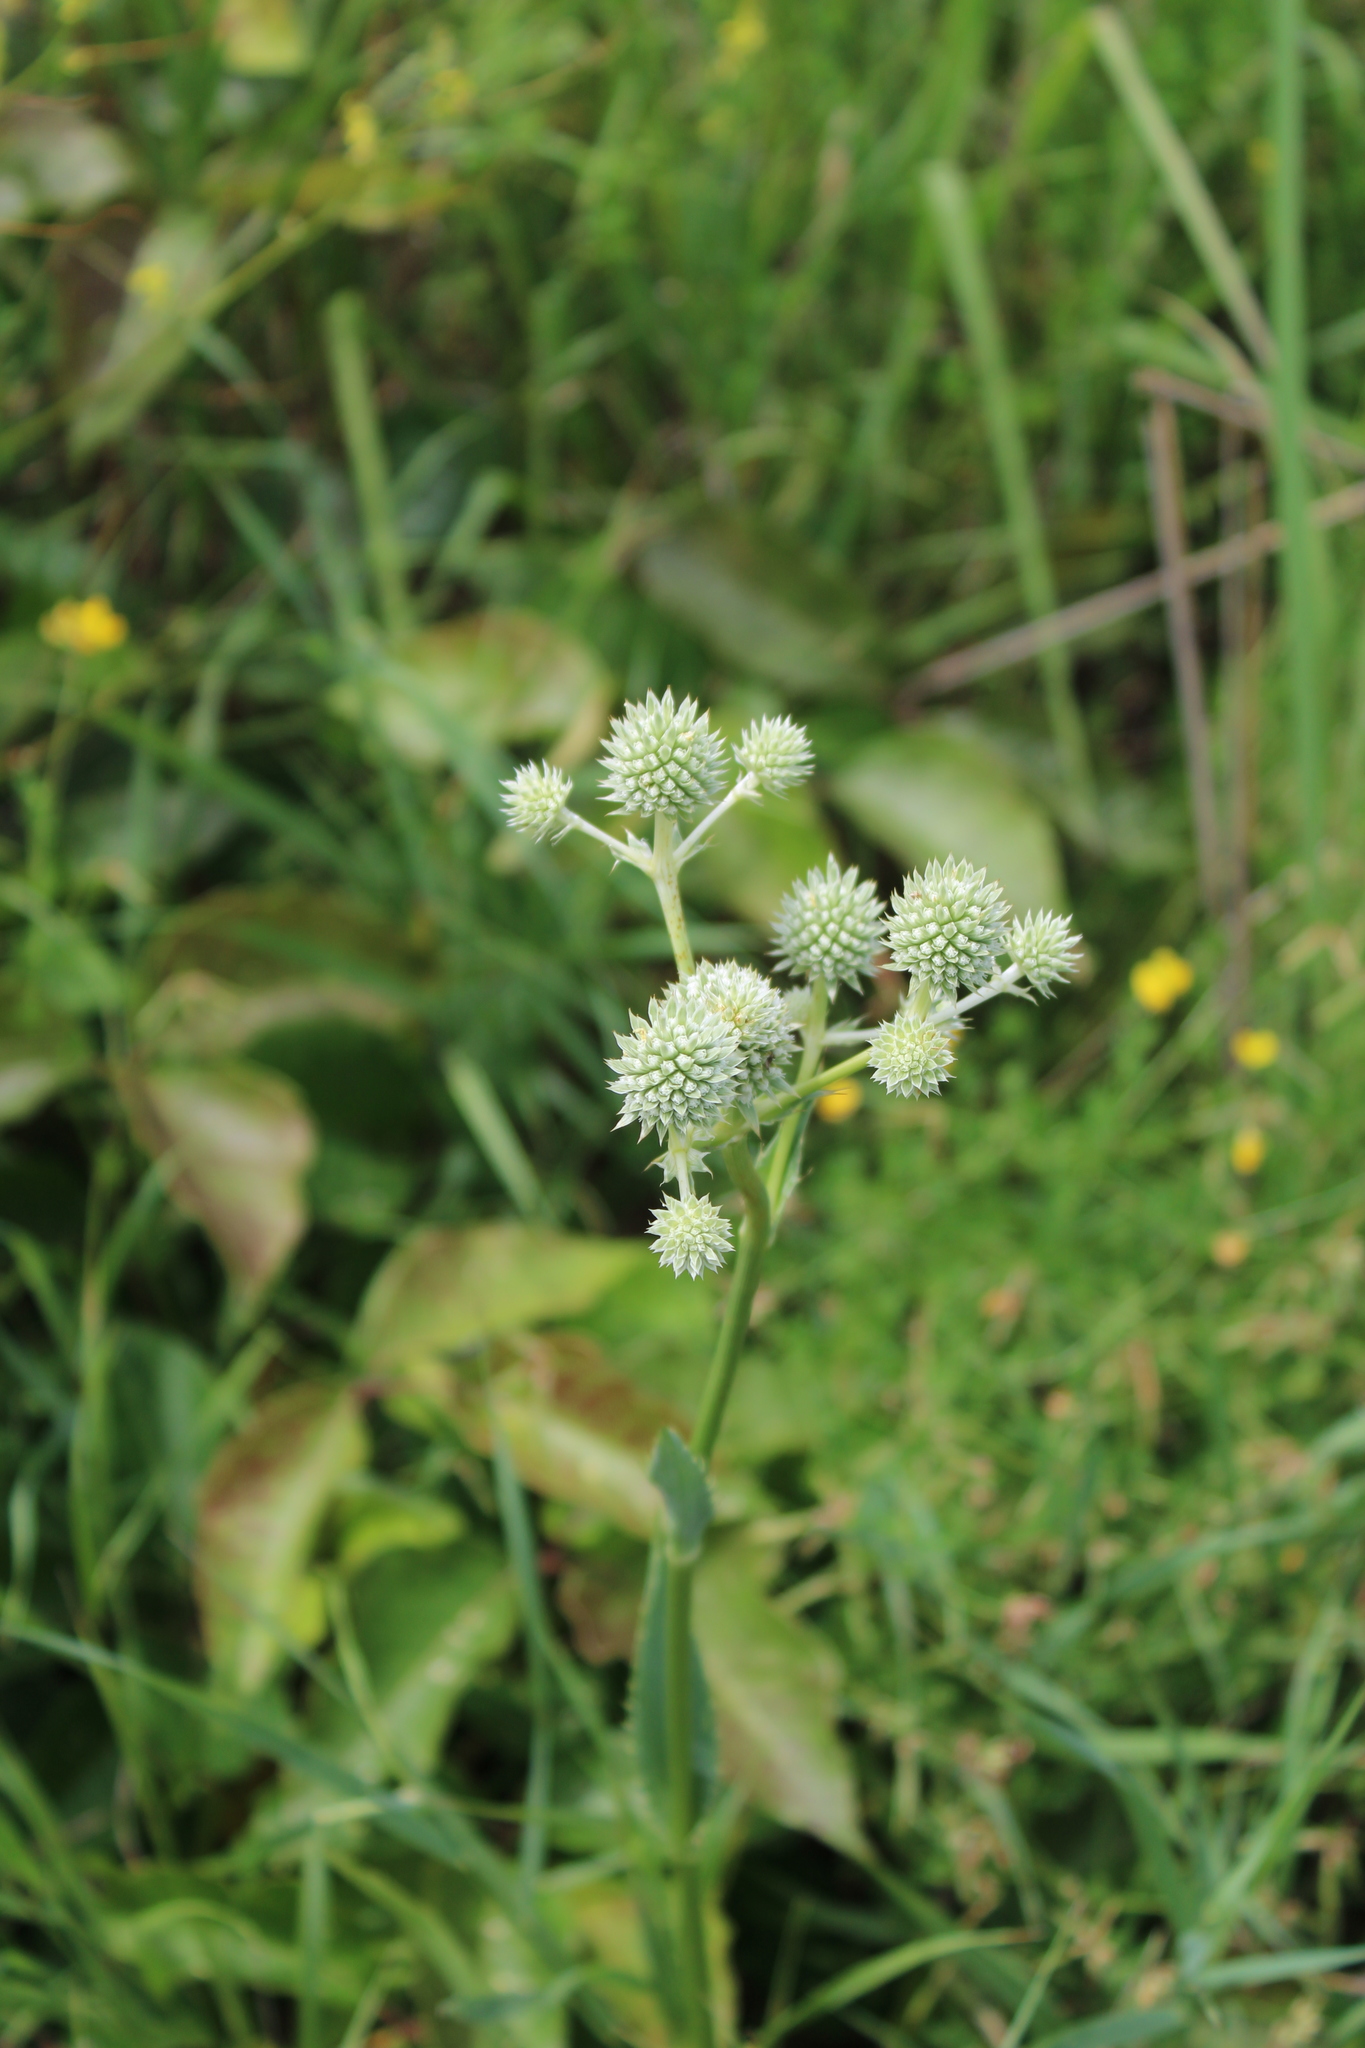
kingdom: Plantae
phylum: Tracheophyta
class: Magnoliopsida
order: Apiales
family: Apiaceae
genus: Eryngium
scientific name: Eryngium yuccifolium
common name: Button eryngo
